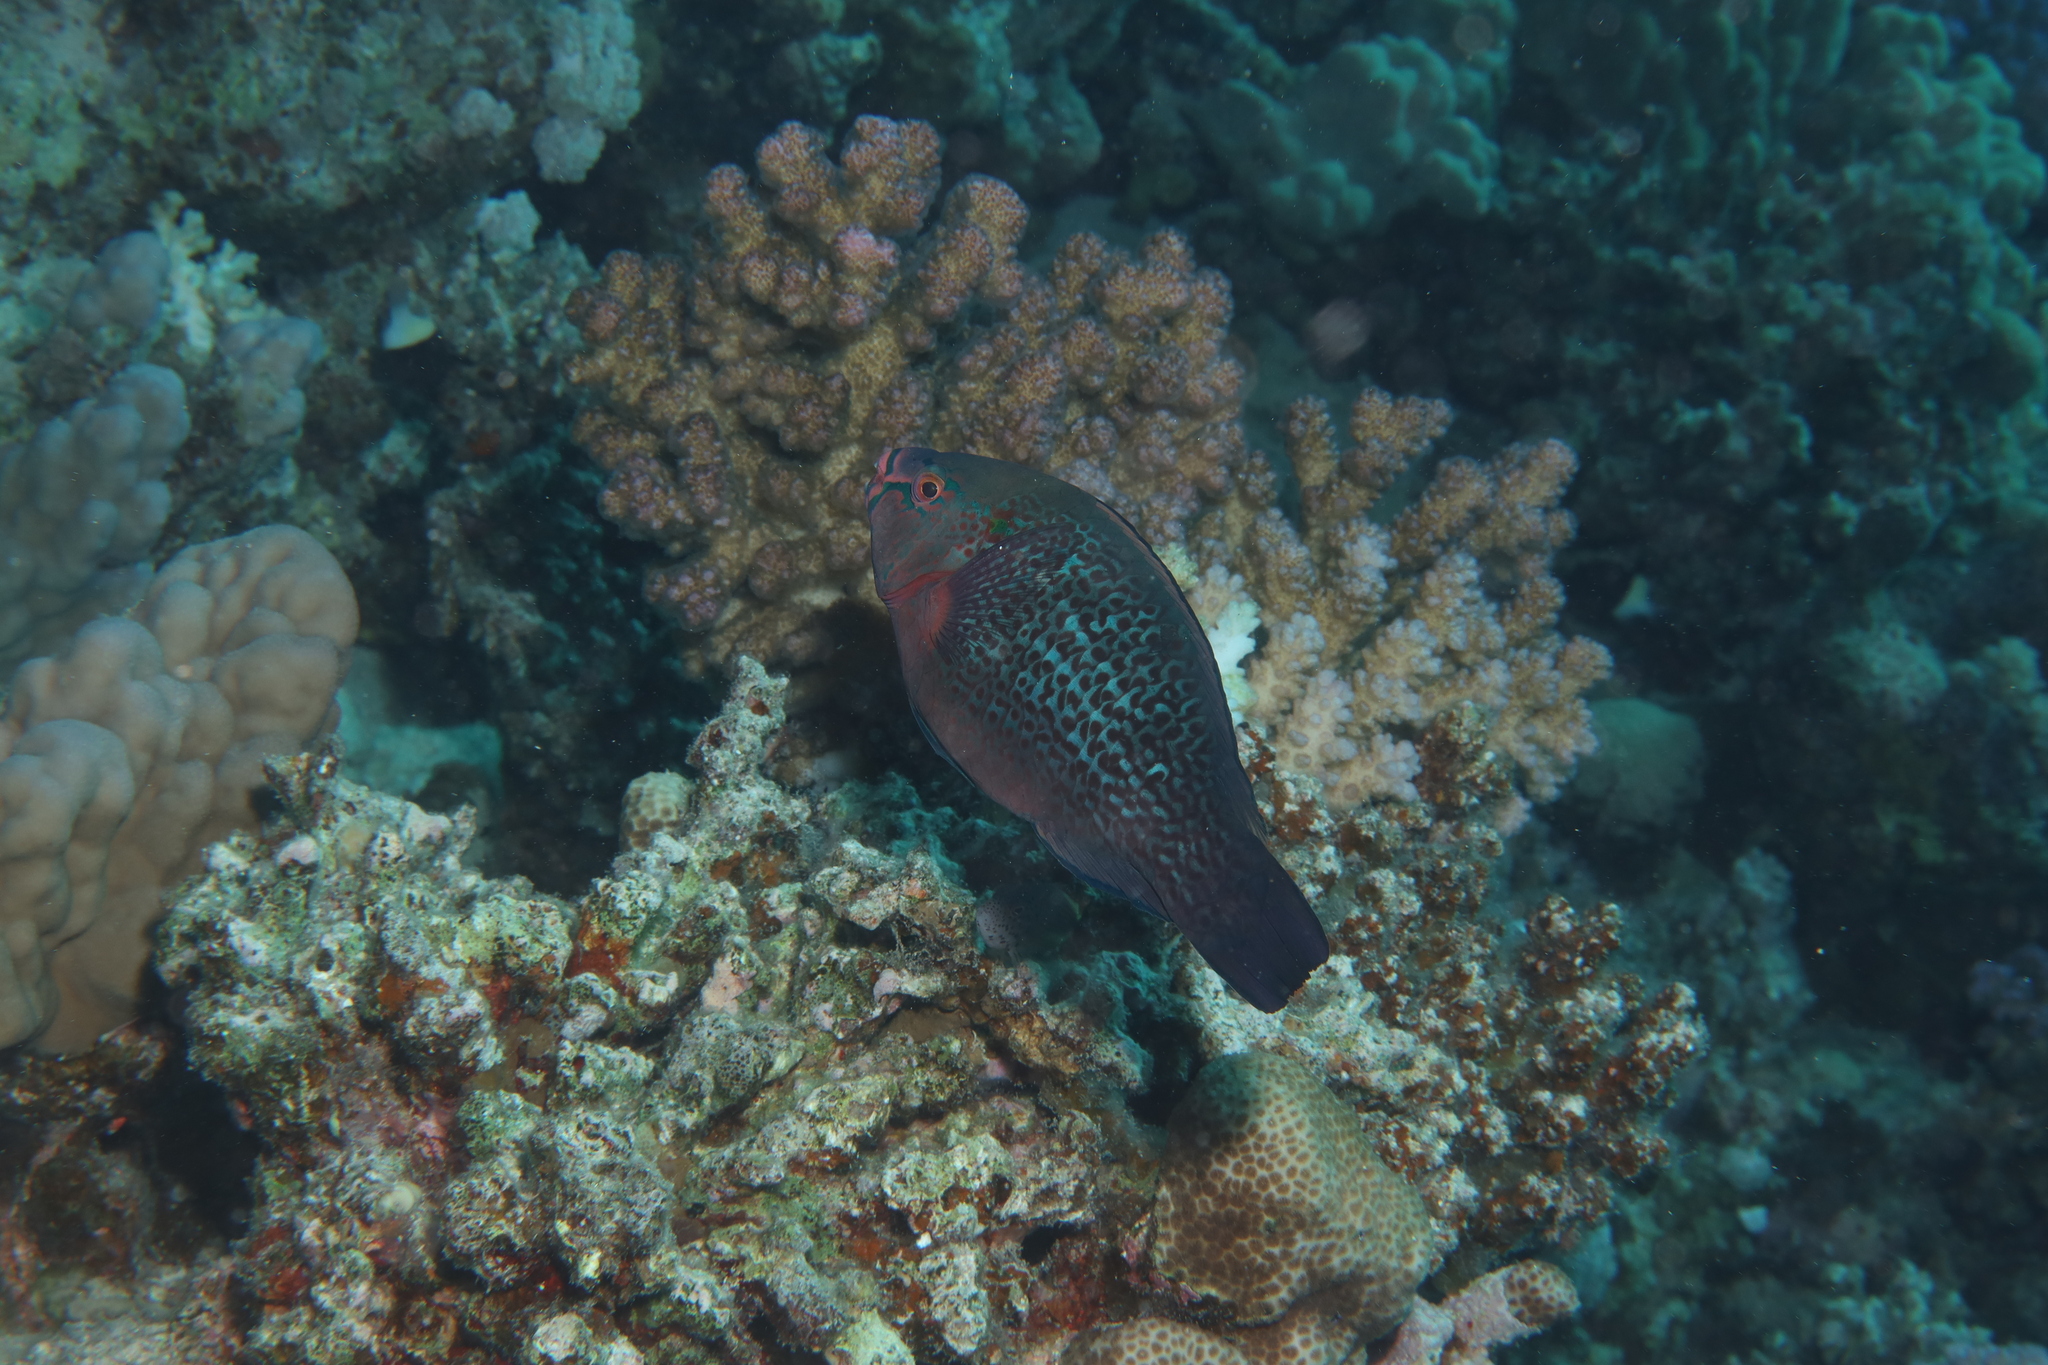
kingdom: Animalia
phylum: Chordata
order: Perciformes
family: Scaridae
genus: Scarus
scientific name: Scarus niger
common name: Dusky parrotfish
